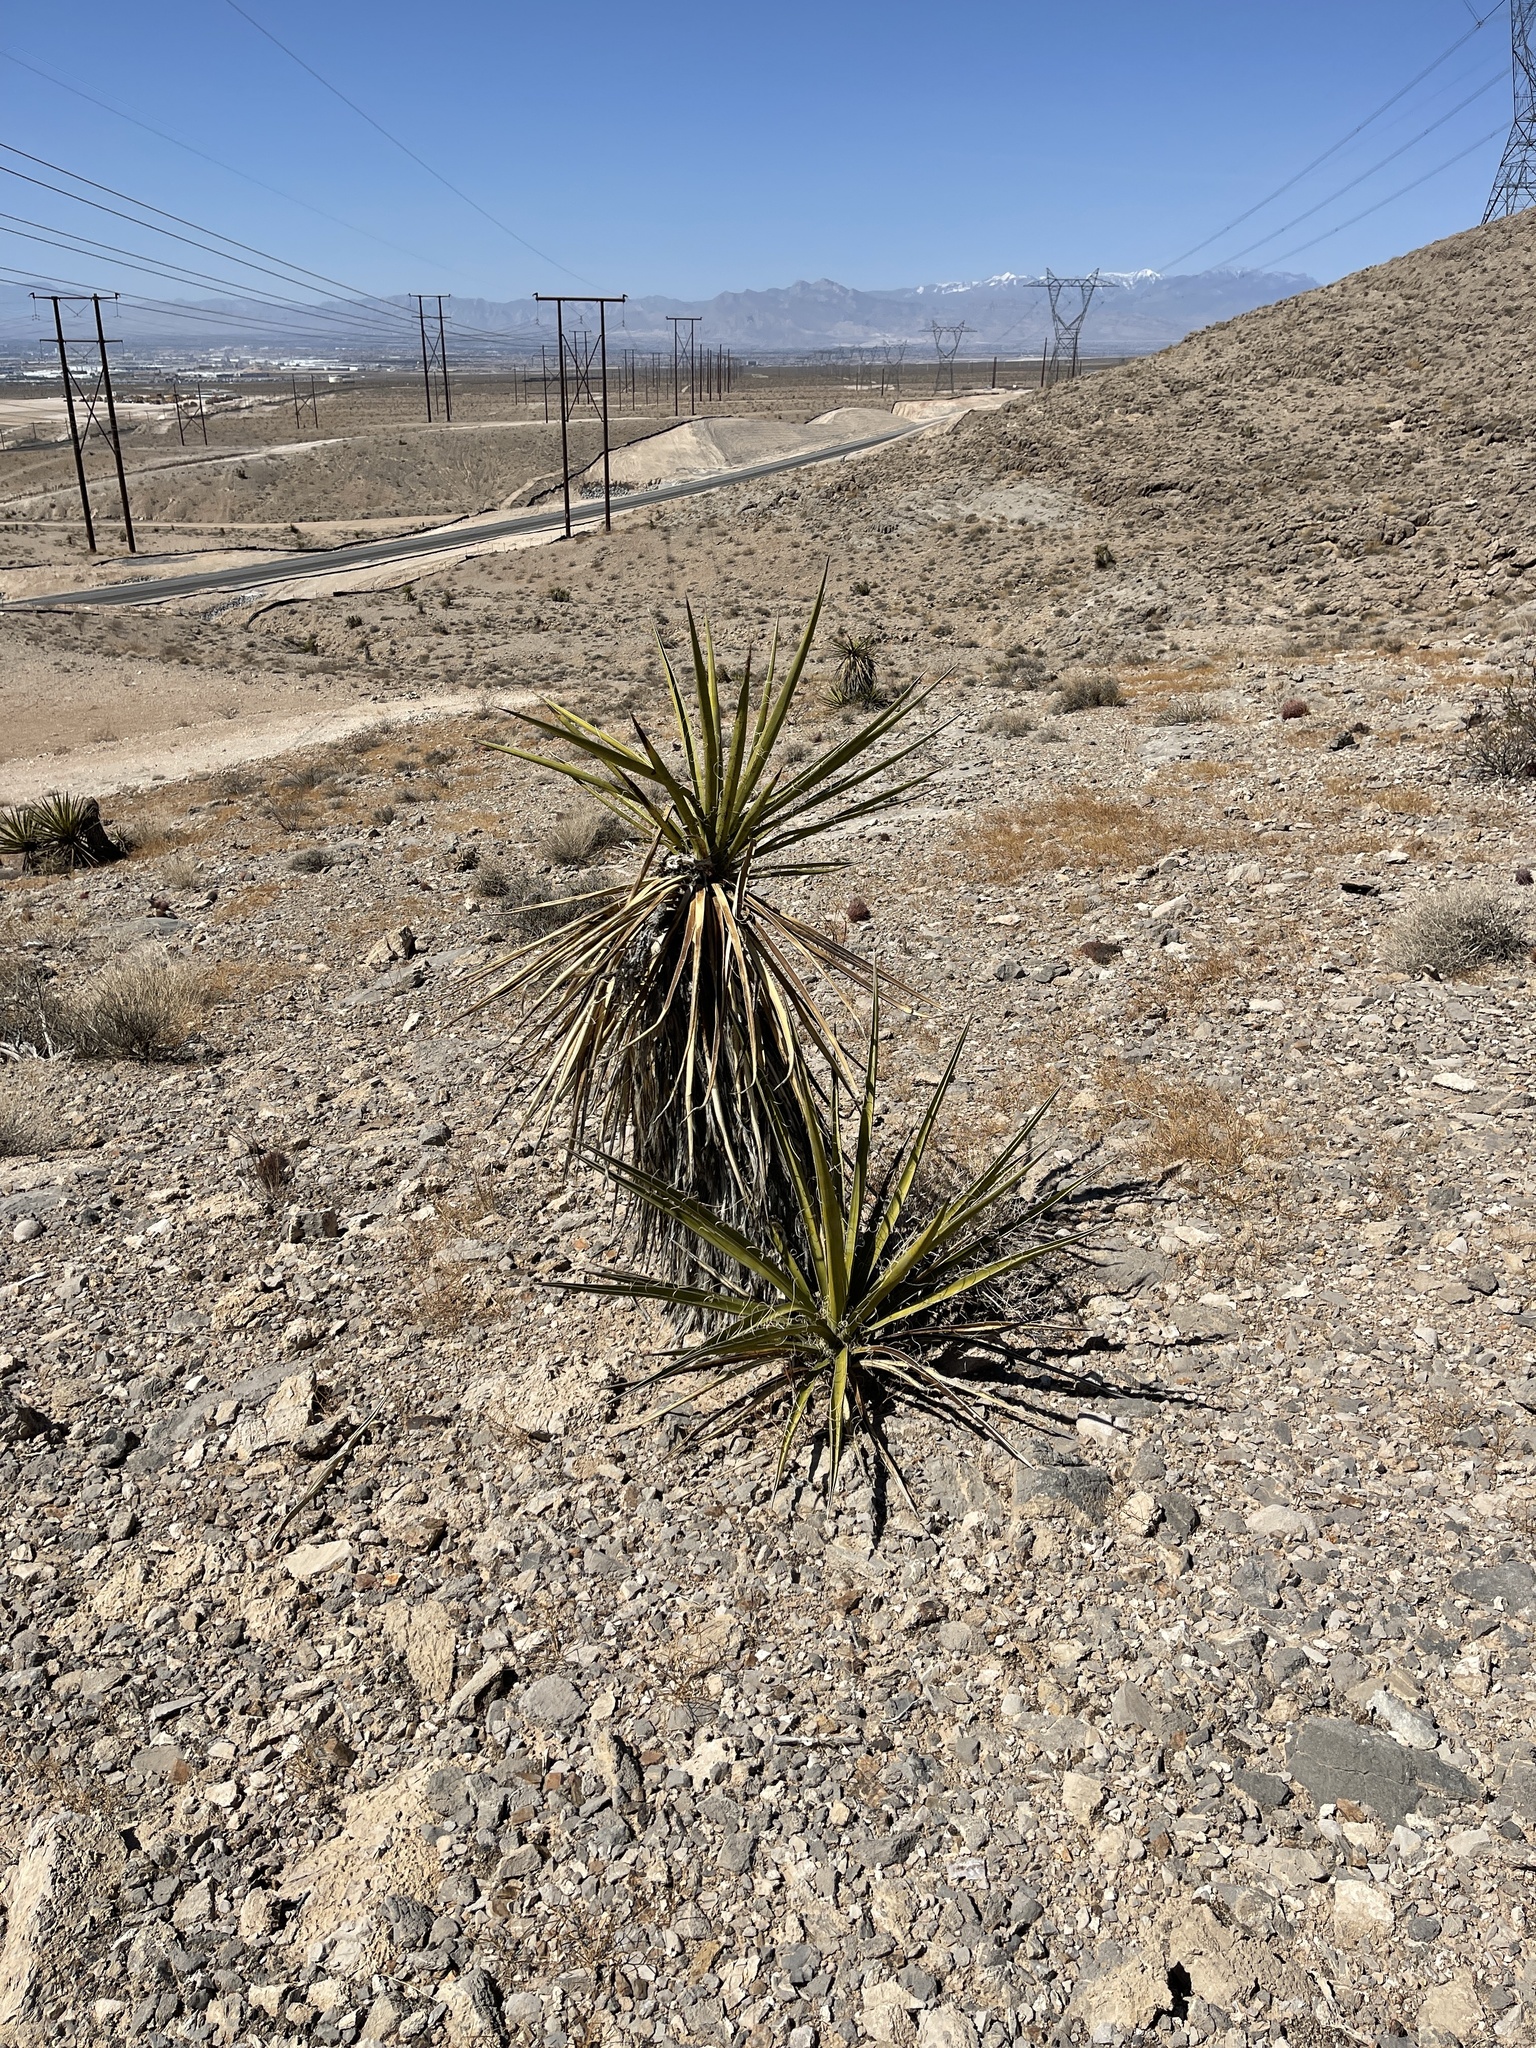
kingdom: Plantae
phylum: Tracheophyta
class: Liliopsida
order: Asparagales
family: Asparagaceae
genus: Yucca
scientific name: Yucca schidigera
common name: Mojave yucca
